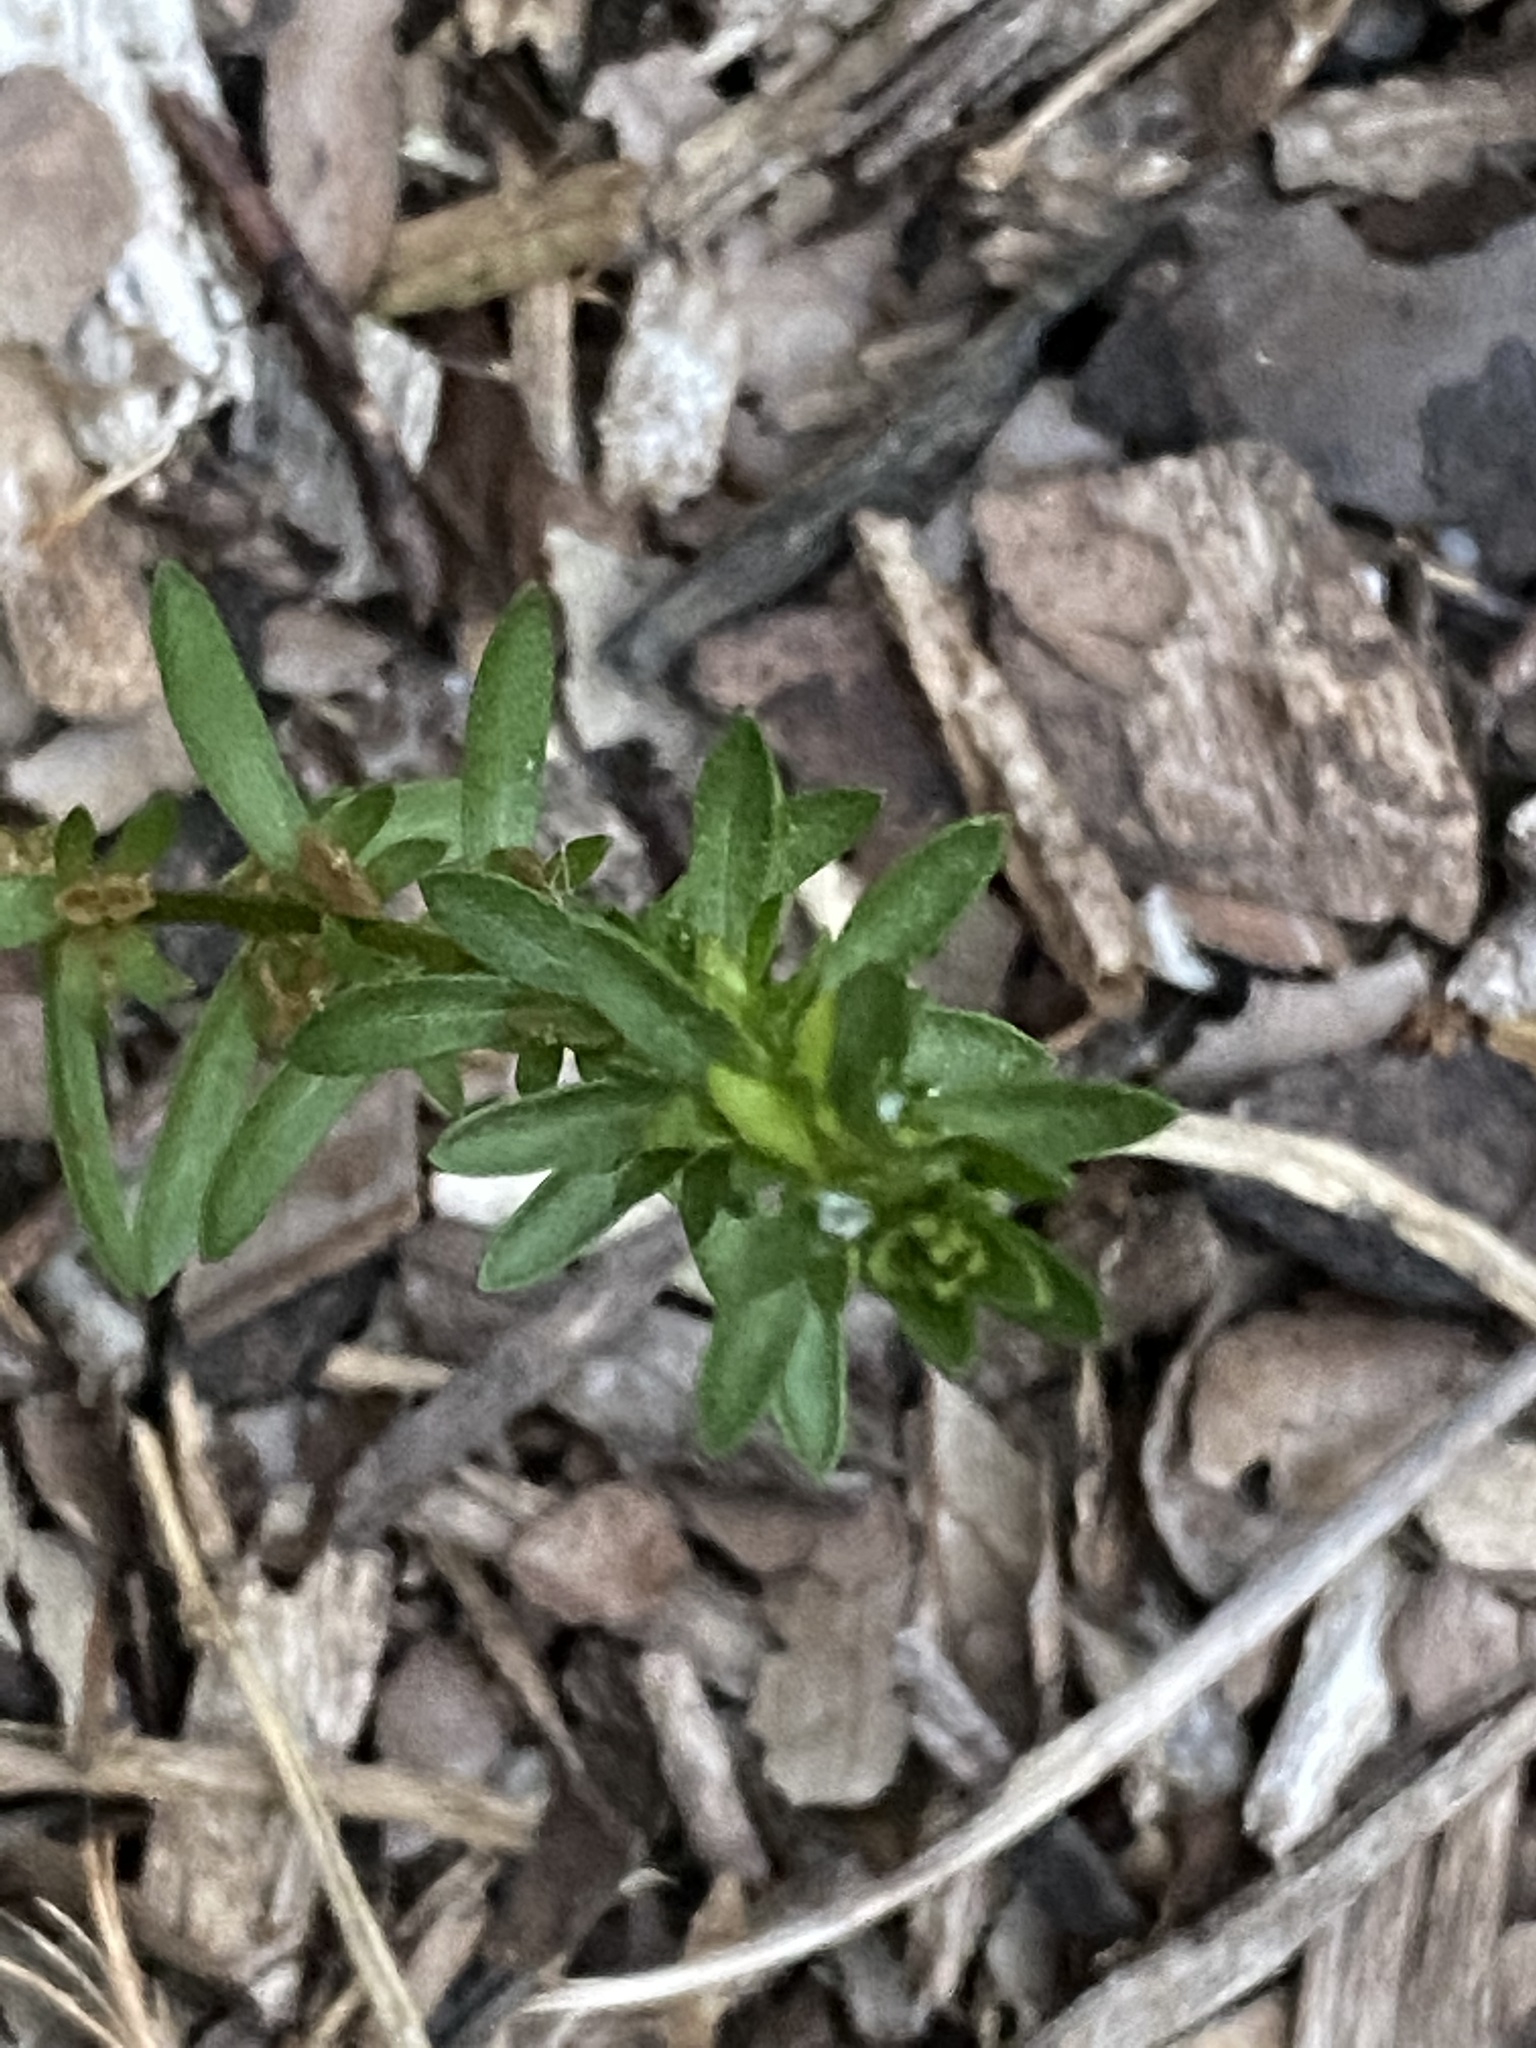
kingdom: Plantae
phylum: Tracheophyta
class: Magnoliopsida
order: Lamiales
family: Plantaginaceae
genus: Veronica
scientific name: Veronica peregrina
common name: Neckweed
